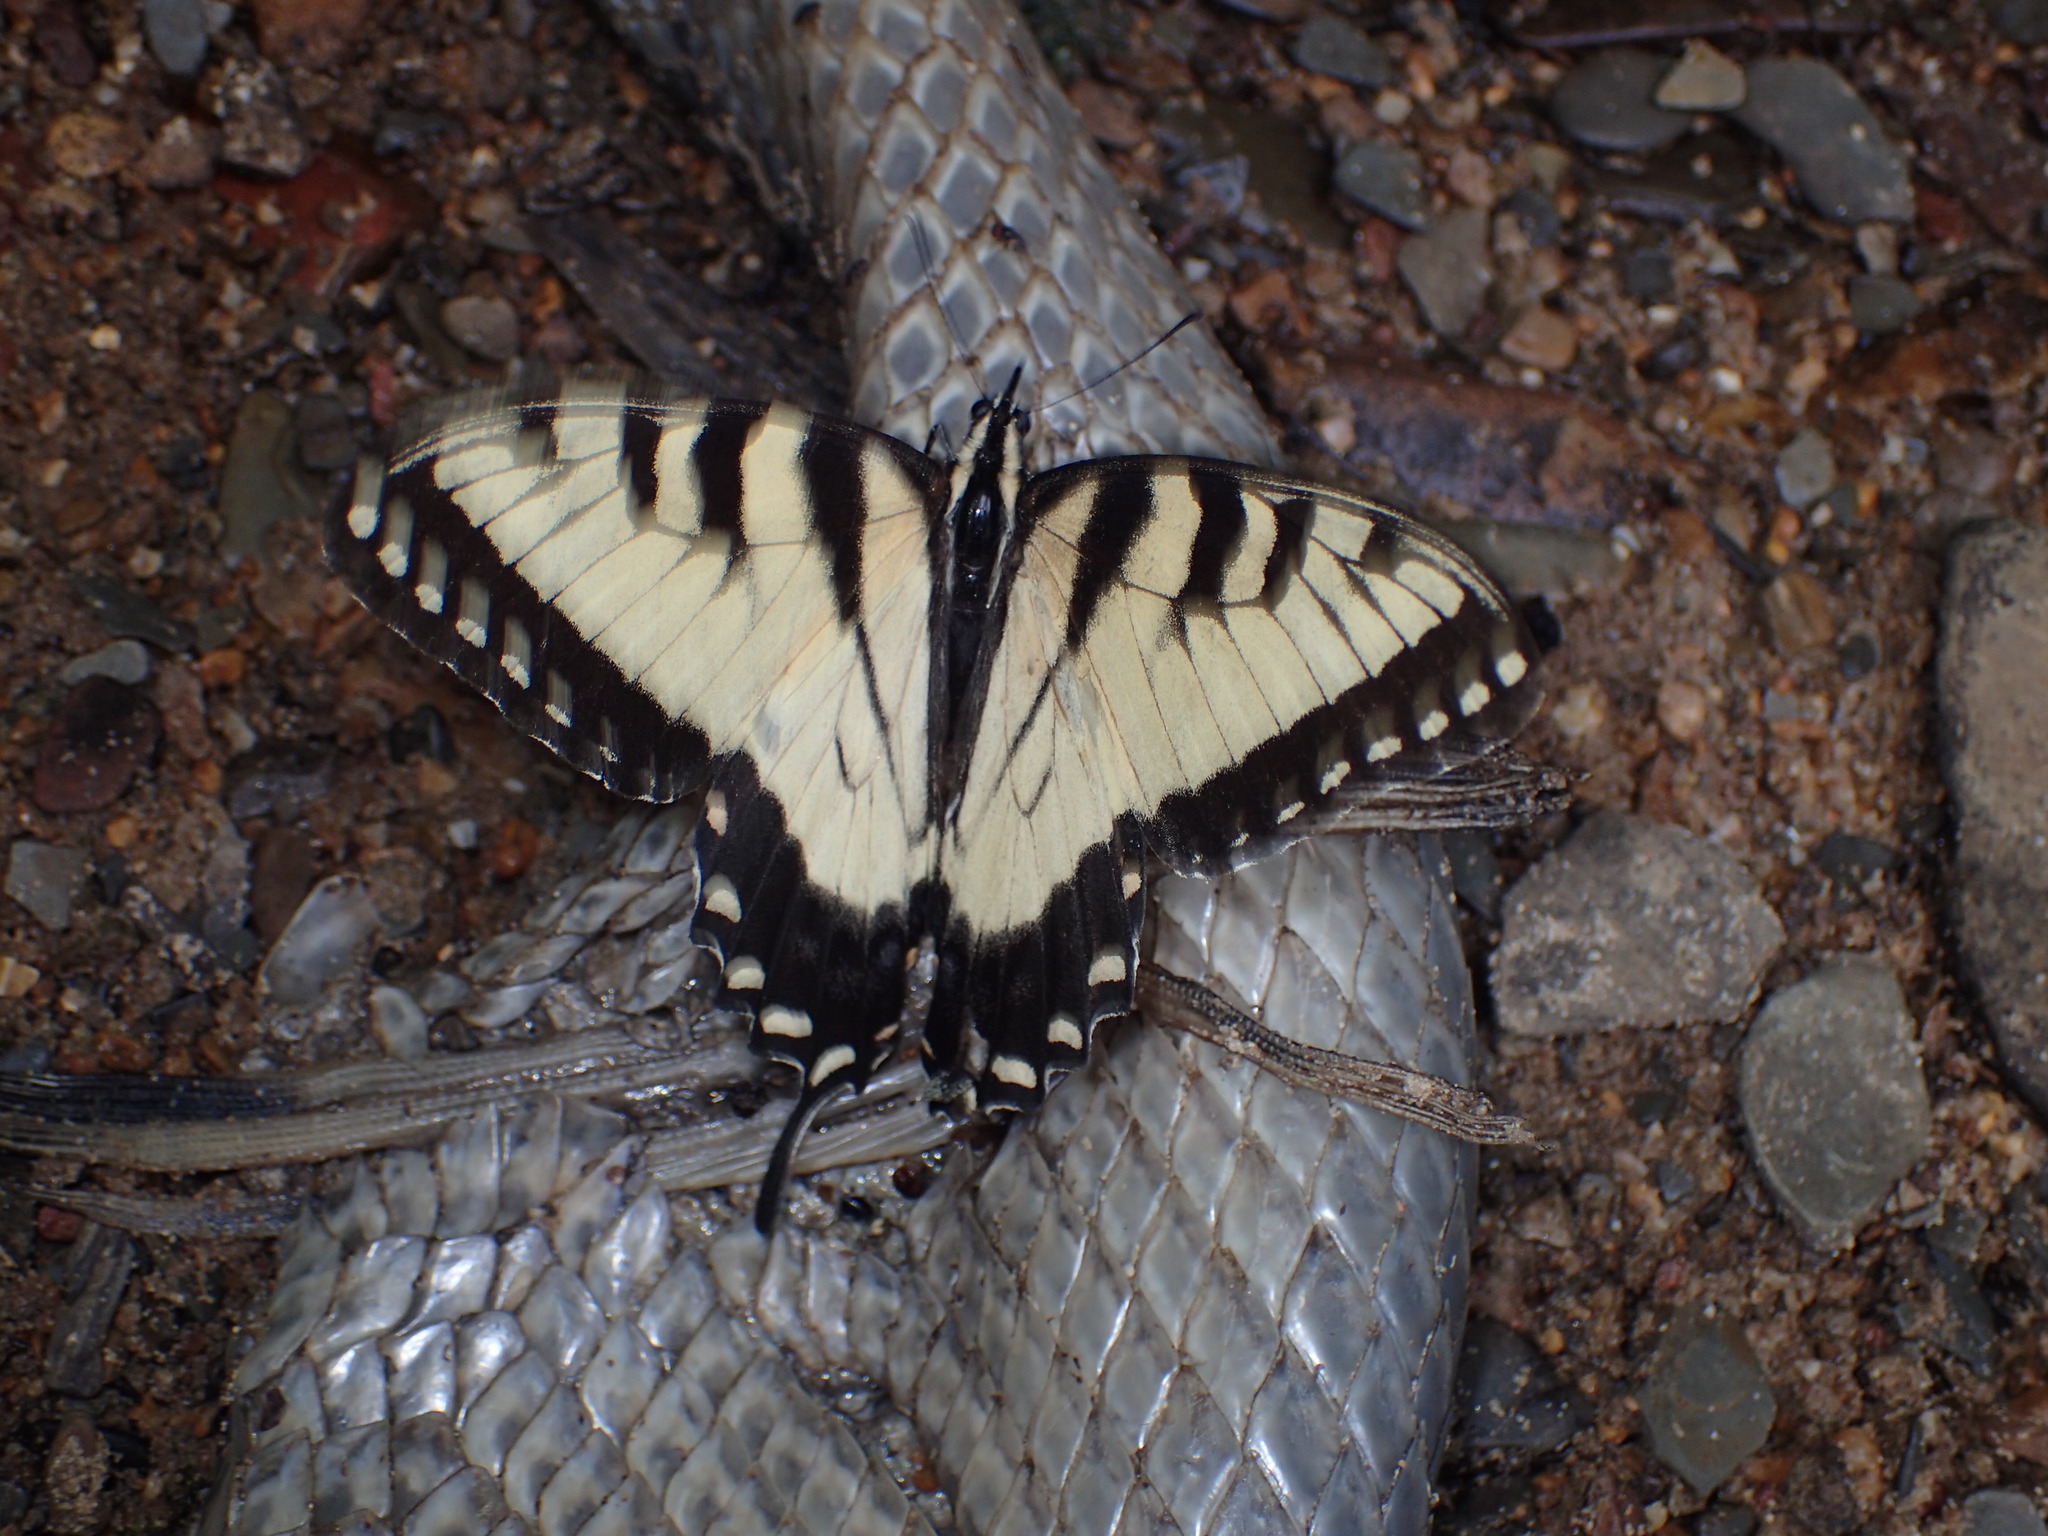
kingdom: Animalia
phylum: Arthropoda
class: Insecta
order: Lepidoptera
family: Papilionidae
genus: Papilio
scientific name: Papilio glaucus
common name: Tiger swallowtail
